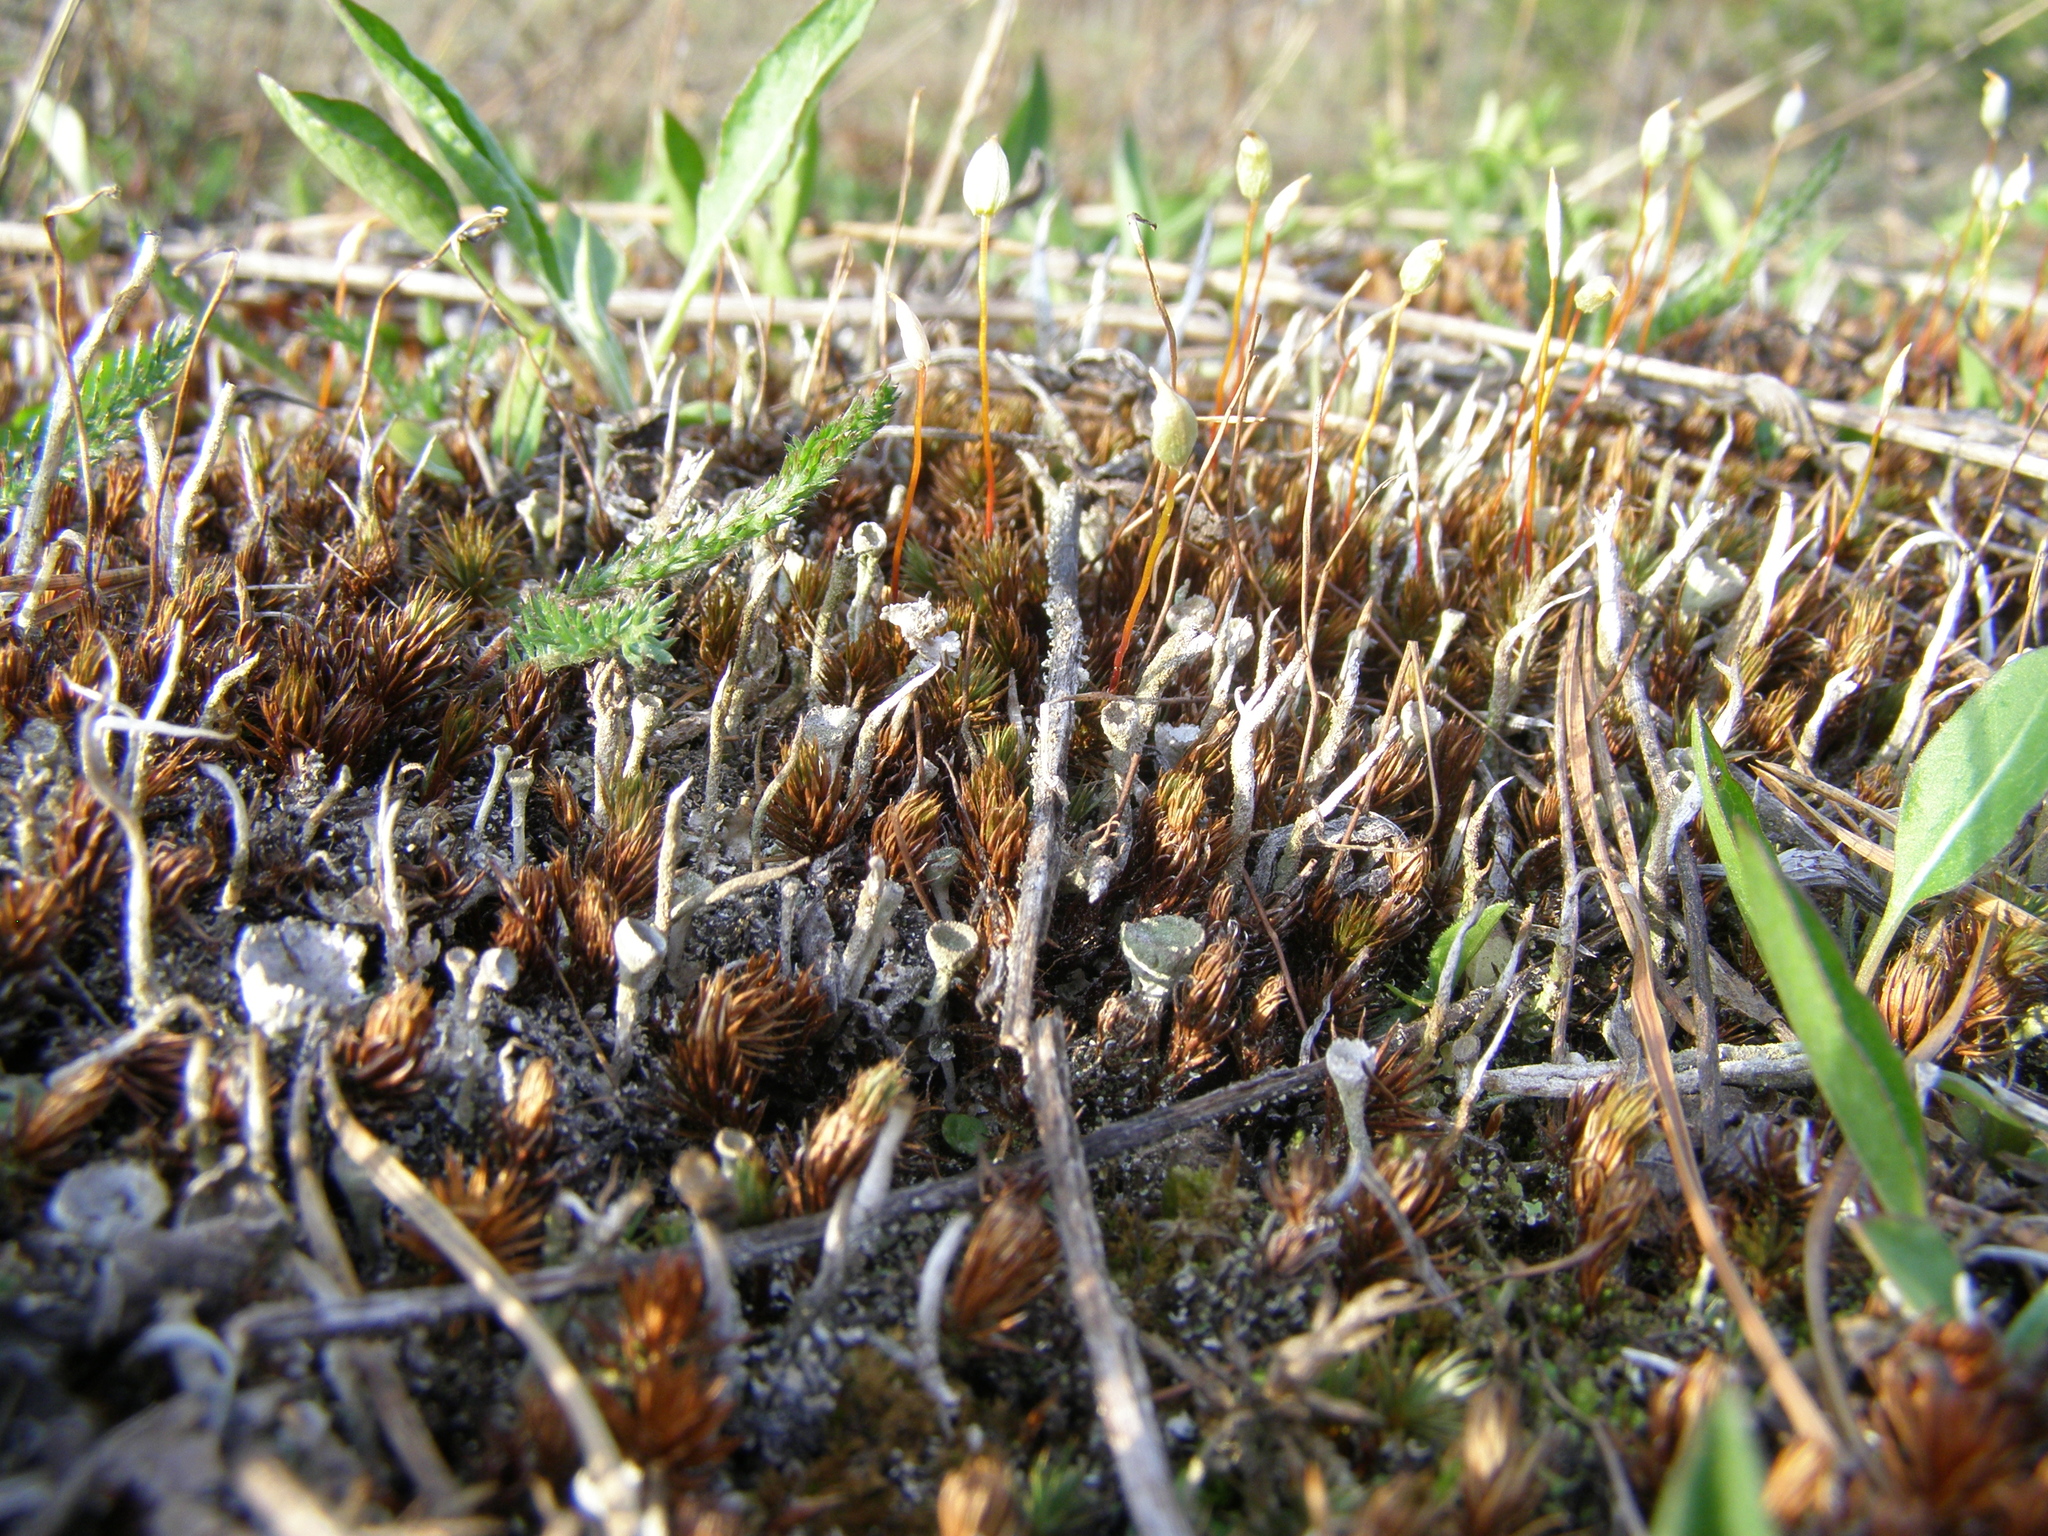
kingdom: Fungi
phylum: Ascomycota
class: Lecanoromycetes
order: Lecanorales
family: Cladoniaceae
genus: Cladonia
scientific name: Cladonia fimbriata
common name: Powdered trumpet lichen
